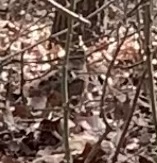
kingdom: Animalia
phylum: Chordata
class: Aves
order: Charadriiformes
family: Scolopacidae
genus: Scolopax
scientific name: Scolopax minor
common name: American woodcock
